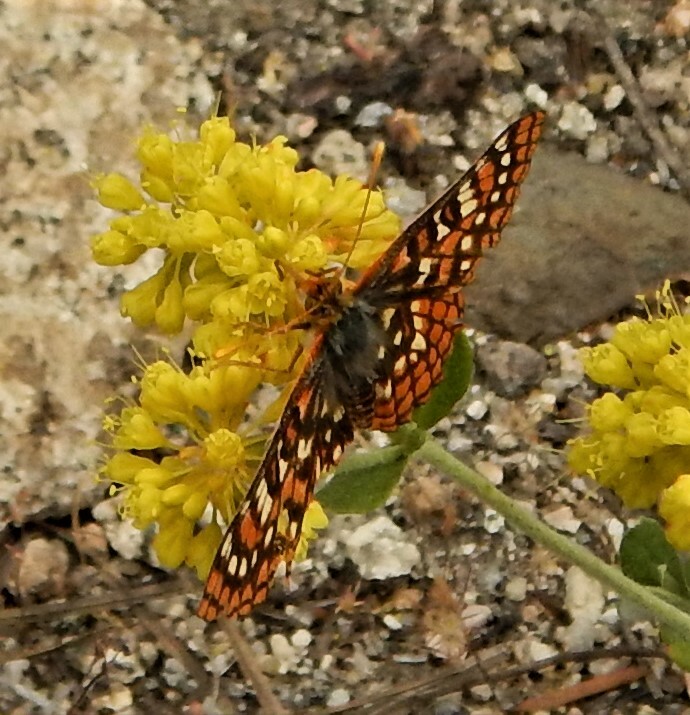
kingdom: Animalia
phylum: Arthropoda
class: Insecta
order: Lepidoptera
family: Nymphalidae
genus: Occidryas
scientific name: Occidryas chalcedona
